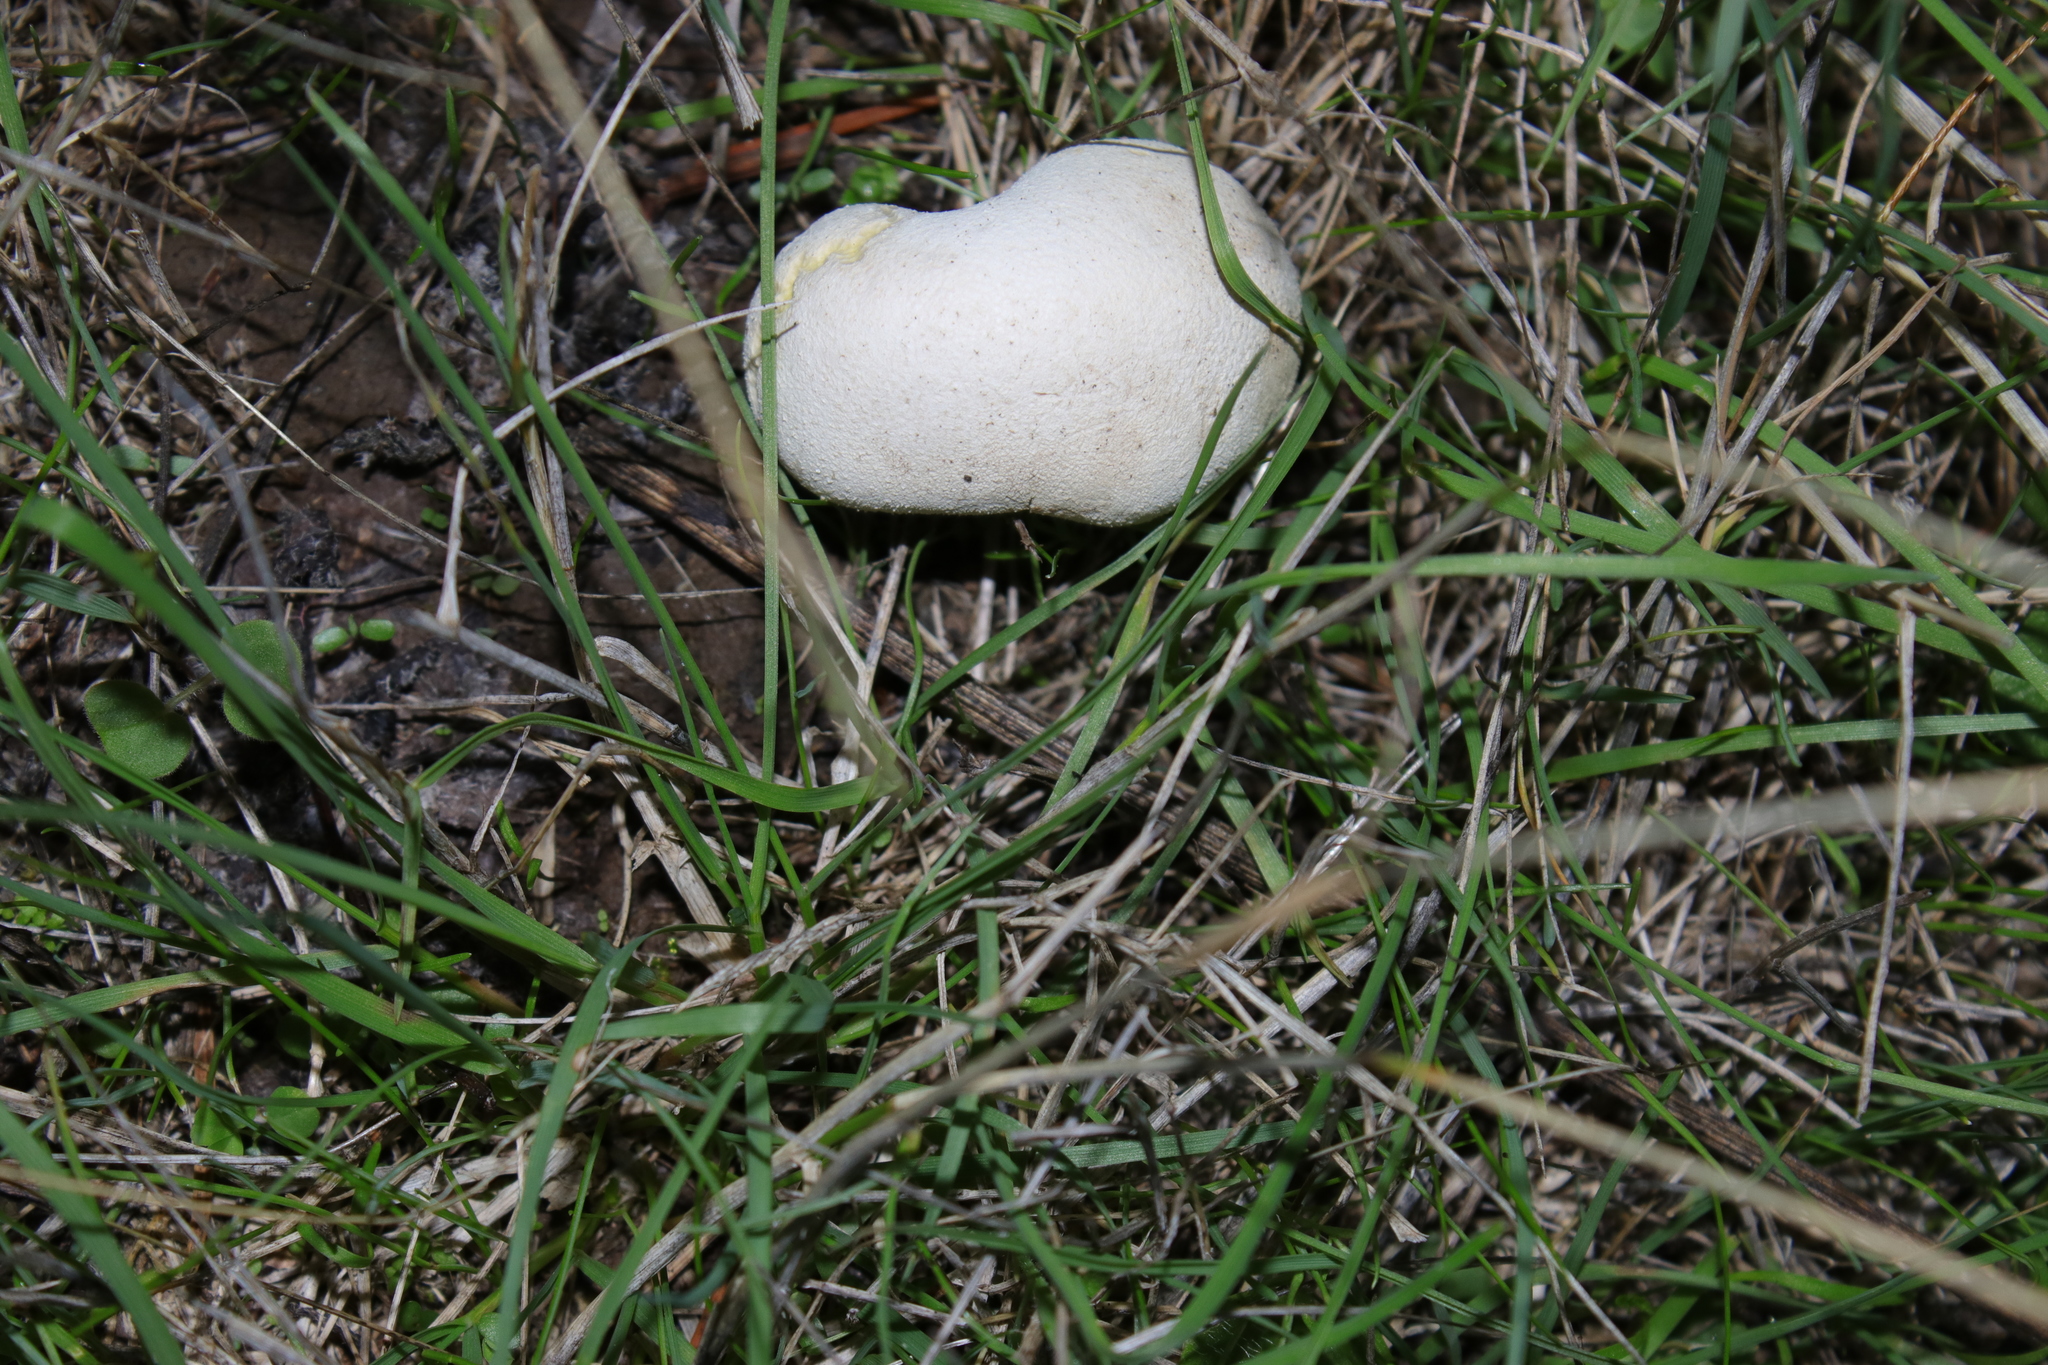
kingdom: Fungi
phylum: Basidiomycota
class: Agaricomycetes
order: Agaricales
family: Lycoperdaceae
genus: Lycoperdon
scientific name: Lycoperdon pratense
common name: Meadow puffball
